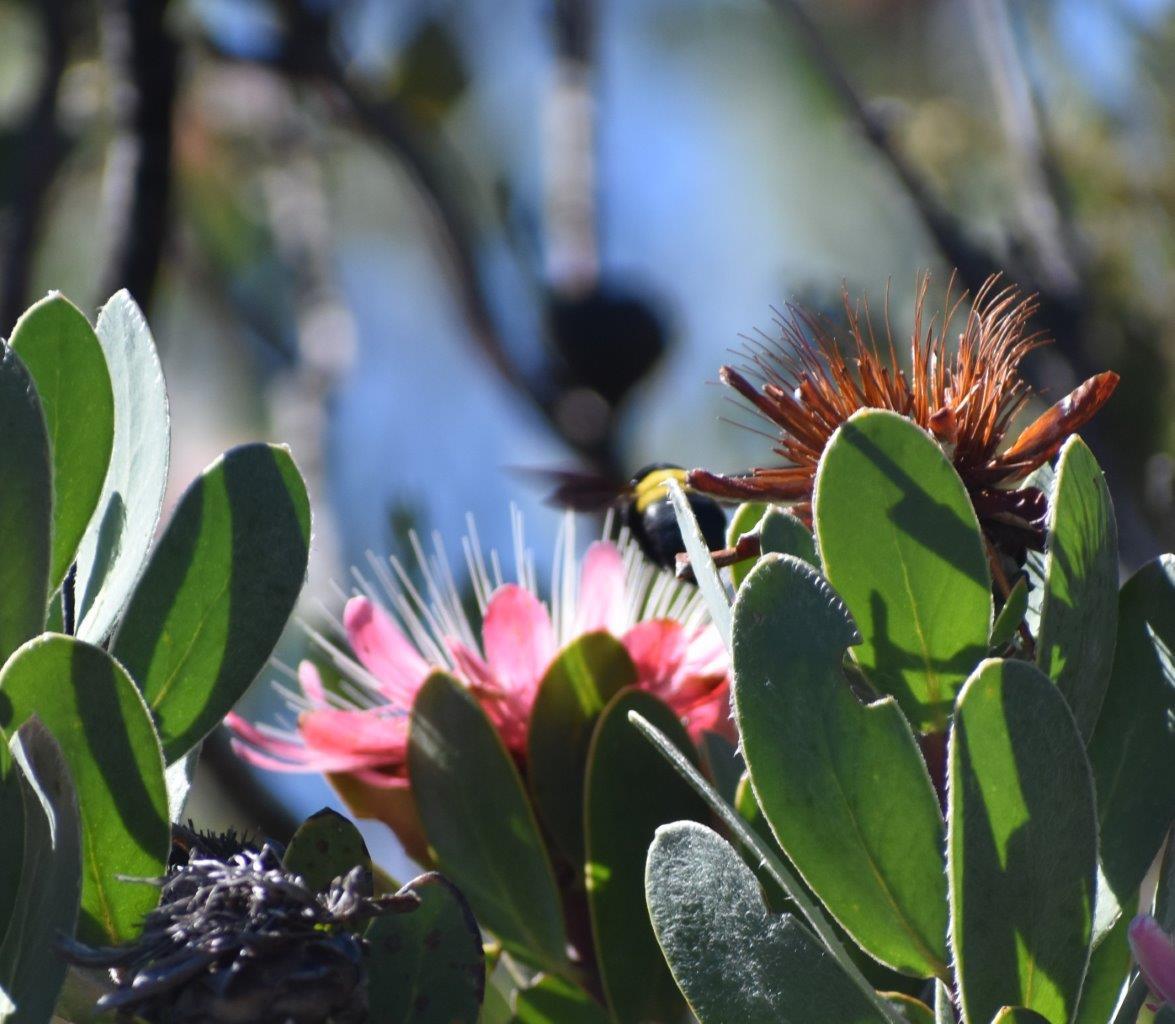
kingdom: Animalia
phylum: Arthropoda
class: Insecta
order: Hymenoptera
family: Apidae
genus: Xylocopa
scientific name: Xylocopa caffra
